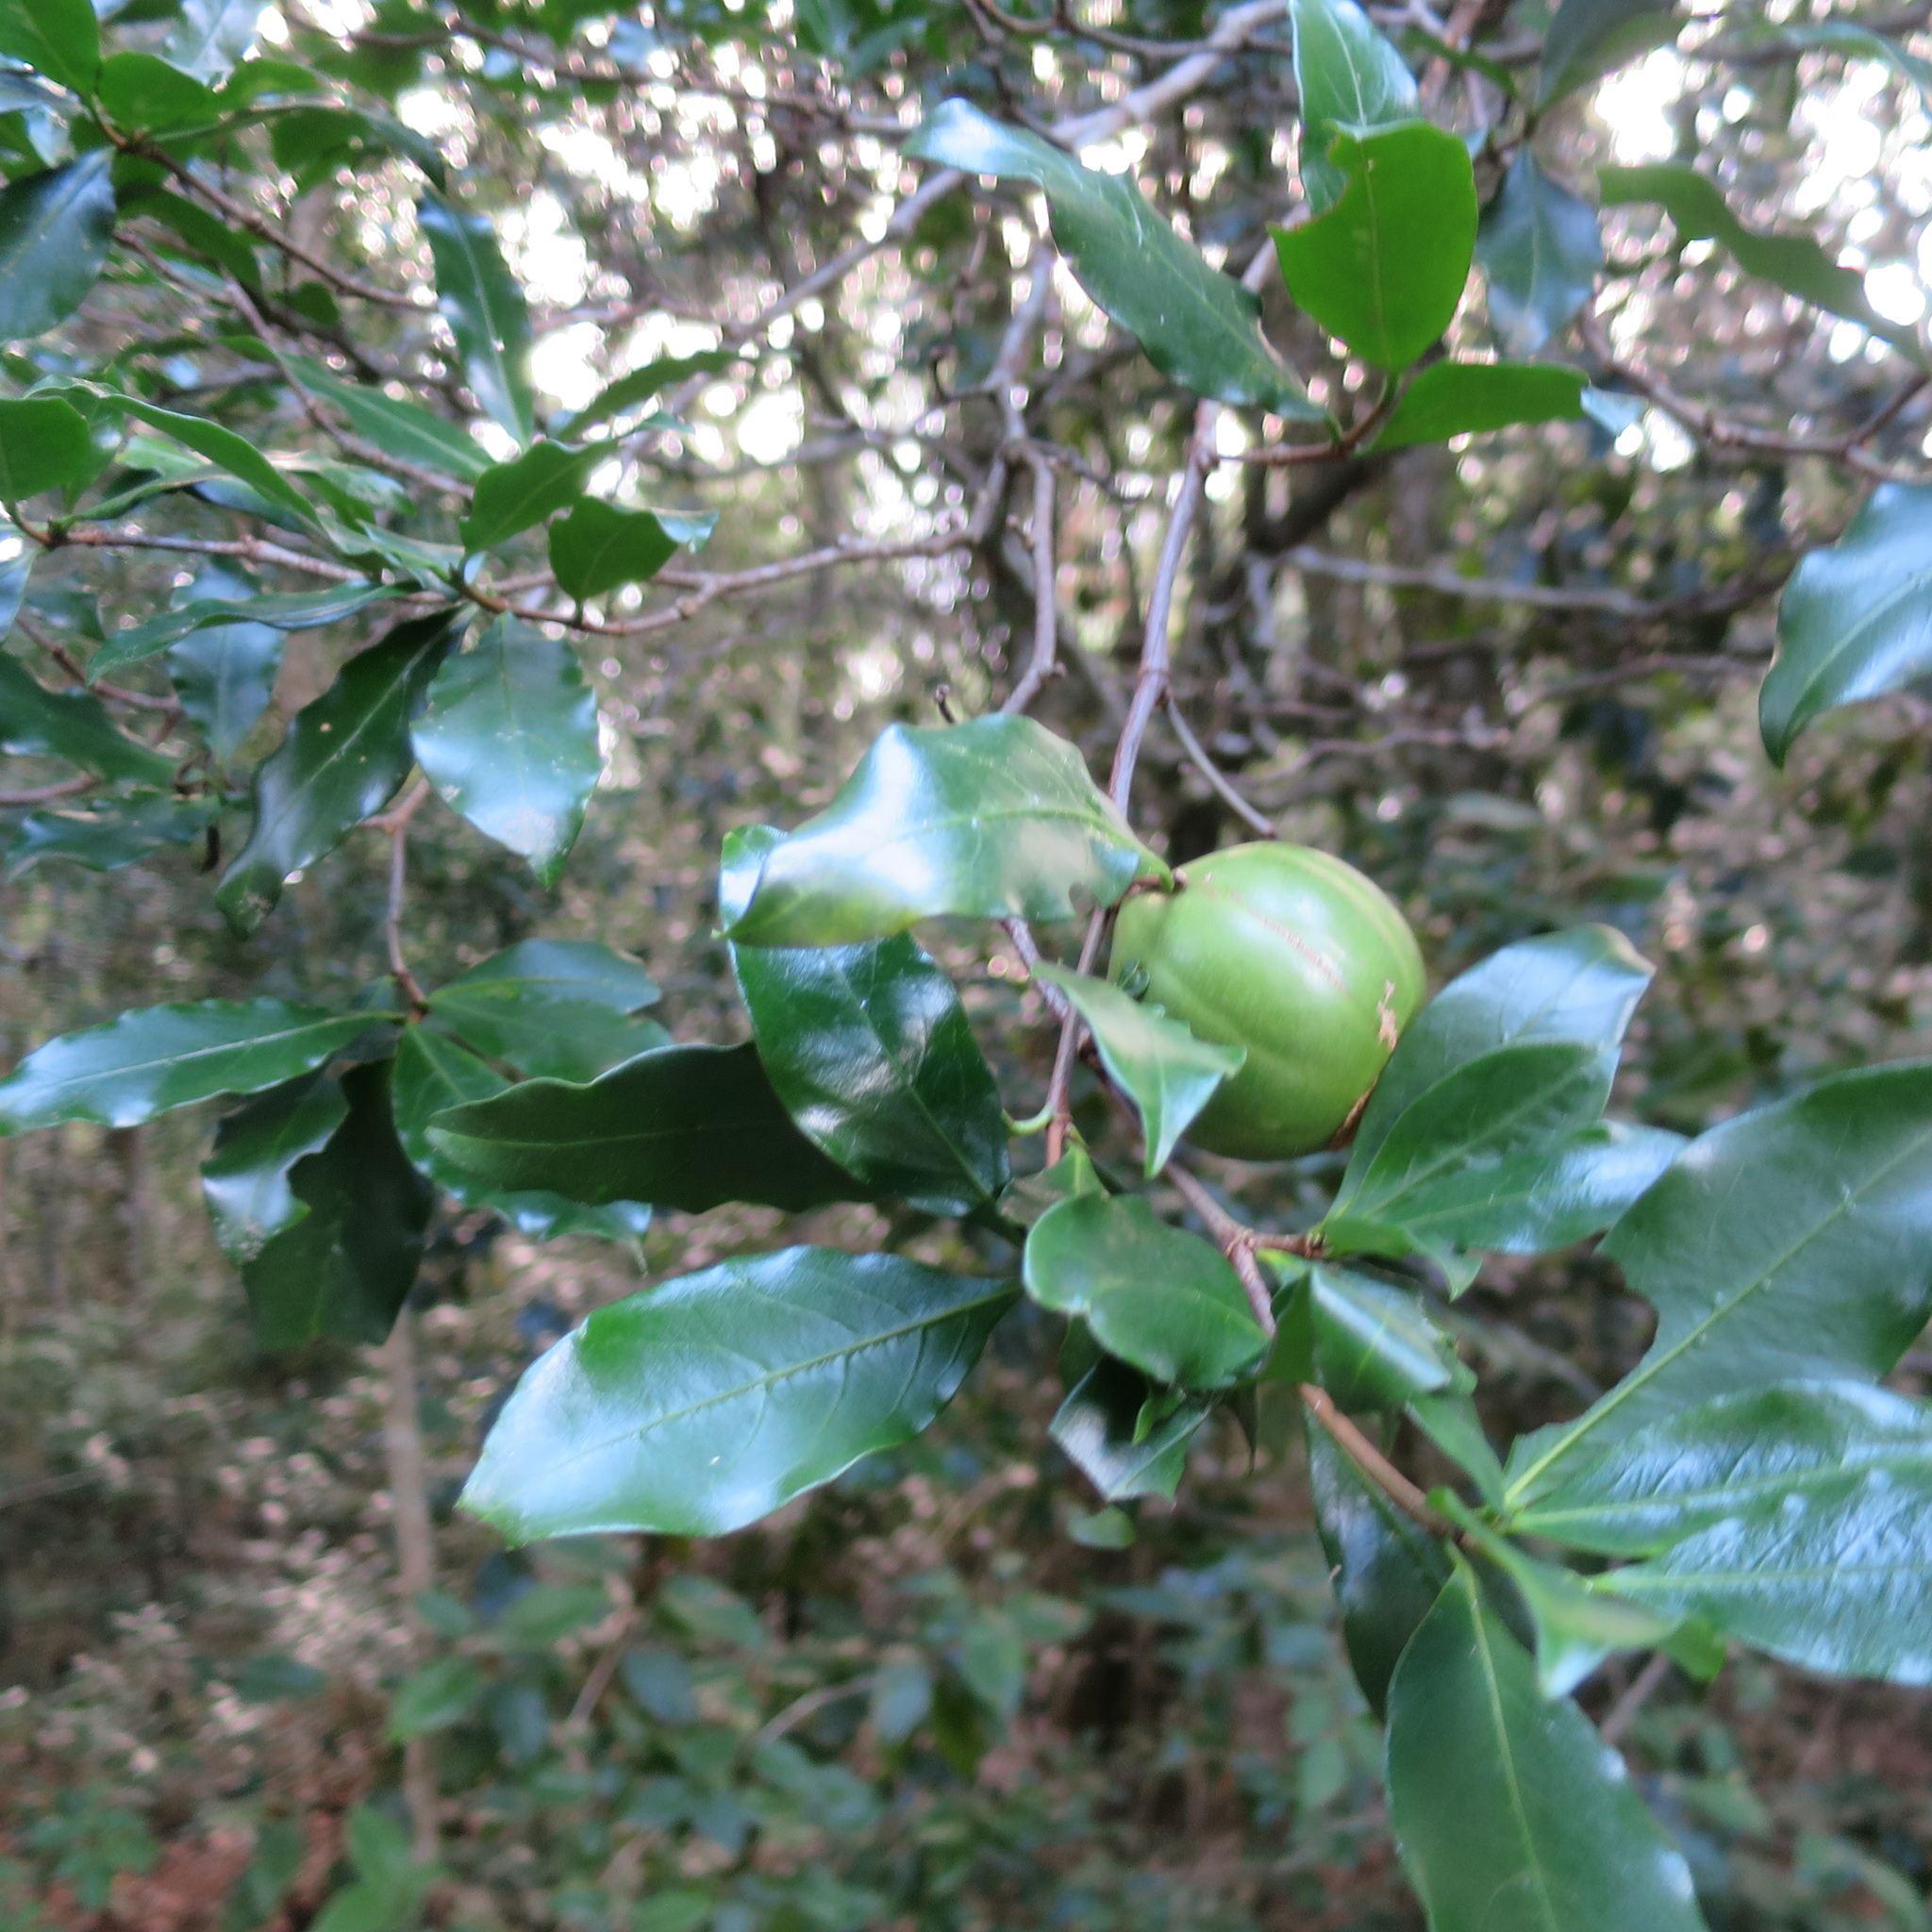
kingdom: Plantae
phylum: Tracheophyta
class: Magnoliopsida
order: Gentianales
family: Rubiaceae
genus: Rothmannia
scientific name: Rothmannia capensis
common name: Cape gardenia
